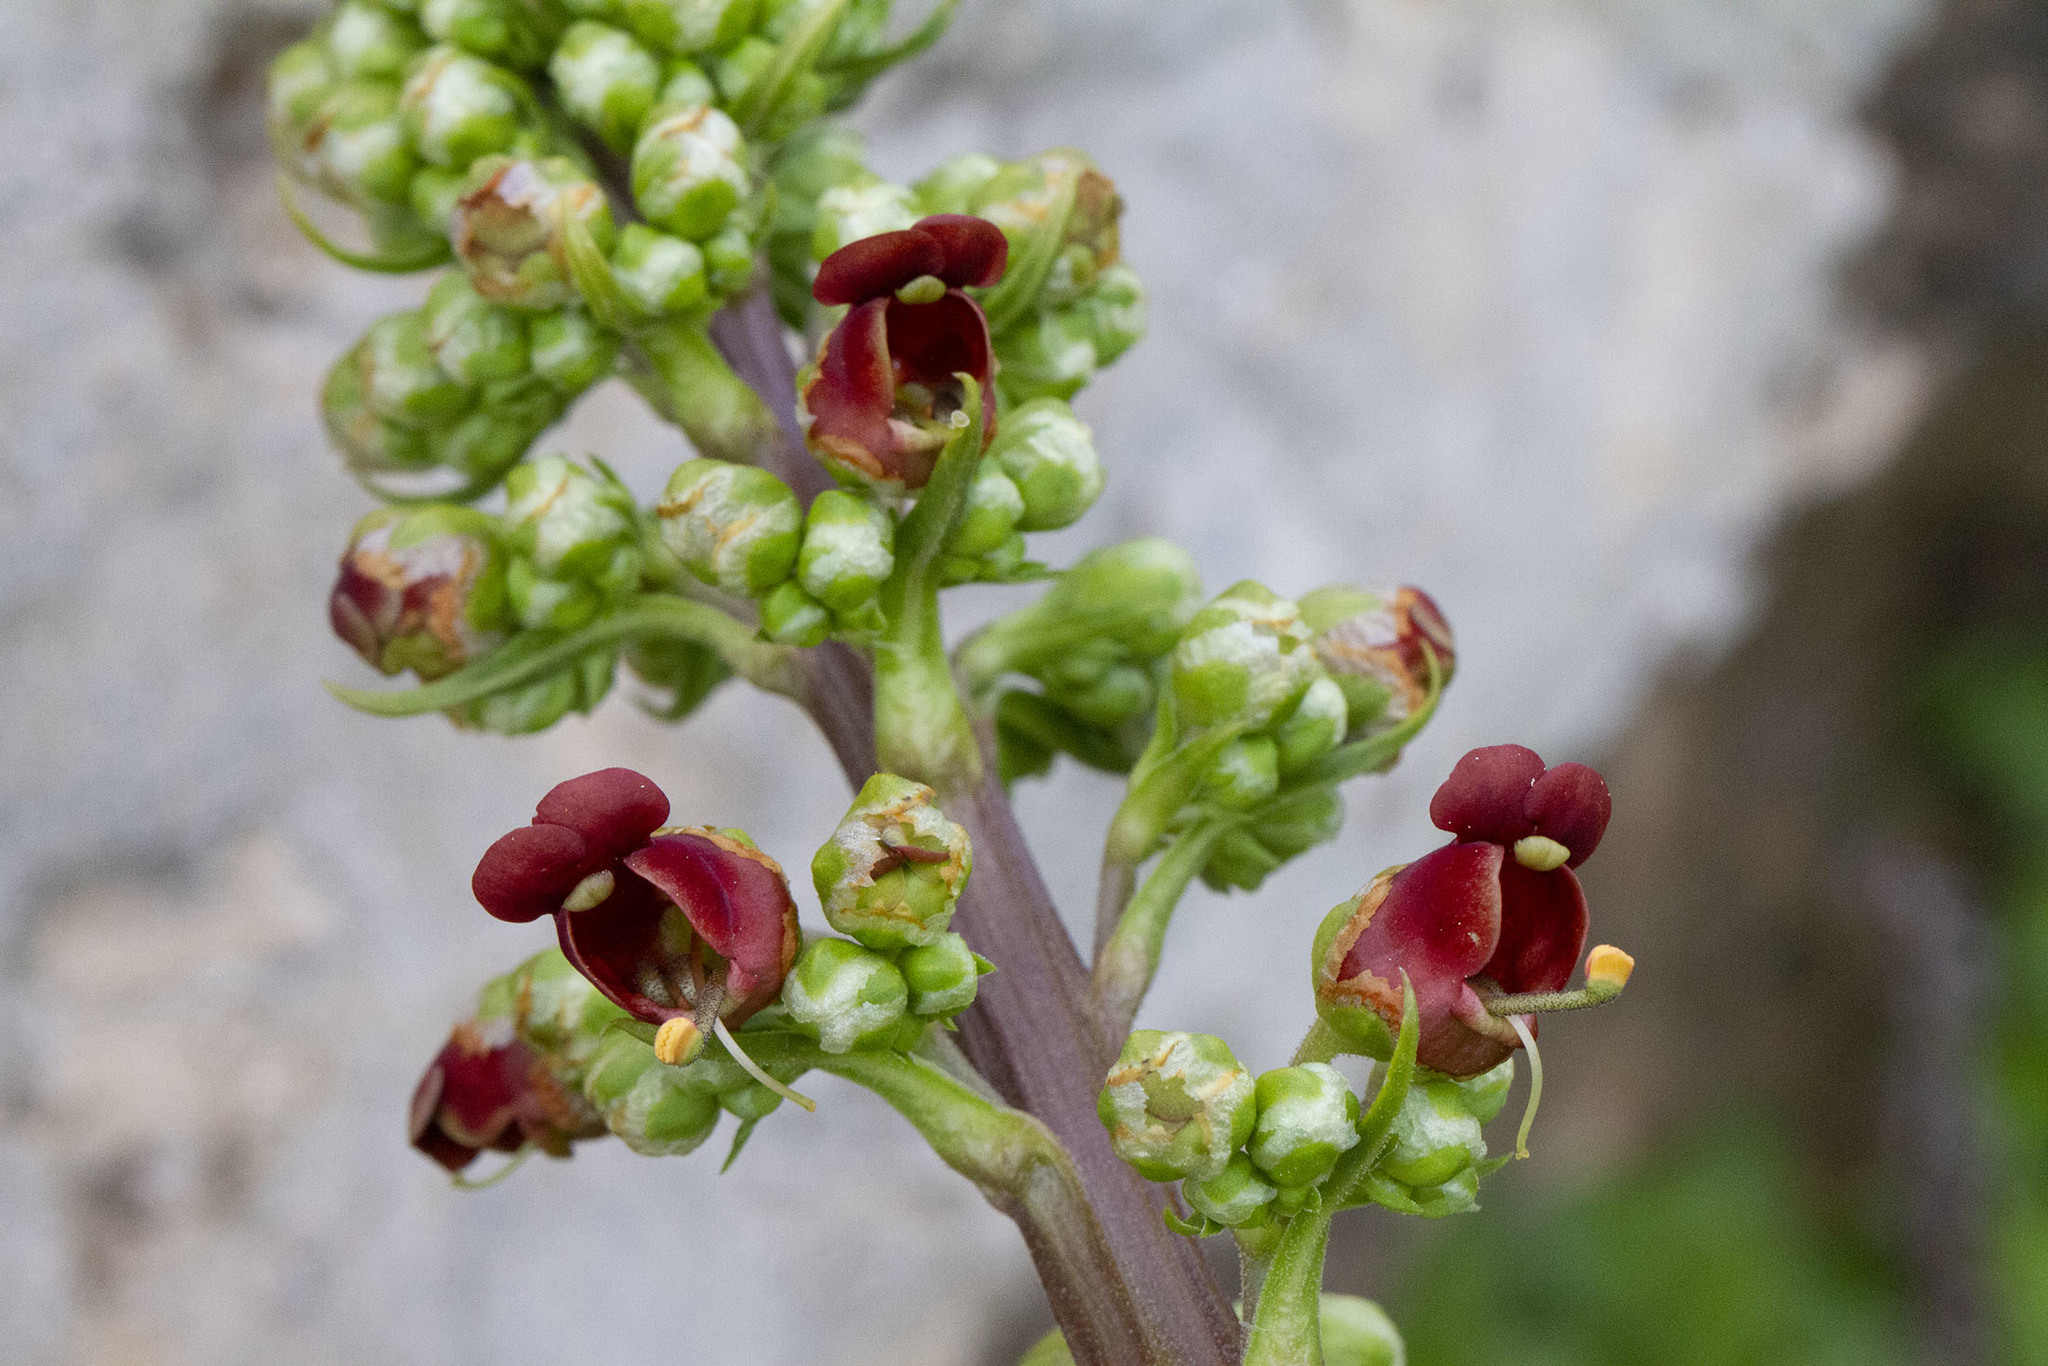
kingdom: Plantae
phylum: Tracheophyta
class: Magnoliopsida
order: Lamiales
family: Scrophulariaceae
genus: Scrophularia
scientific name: Scrophularia rubricaulis
